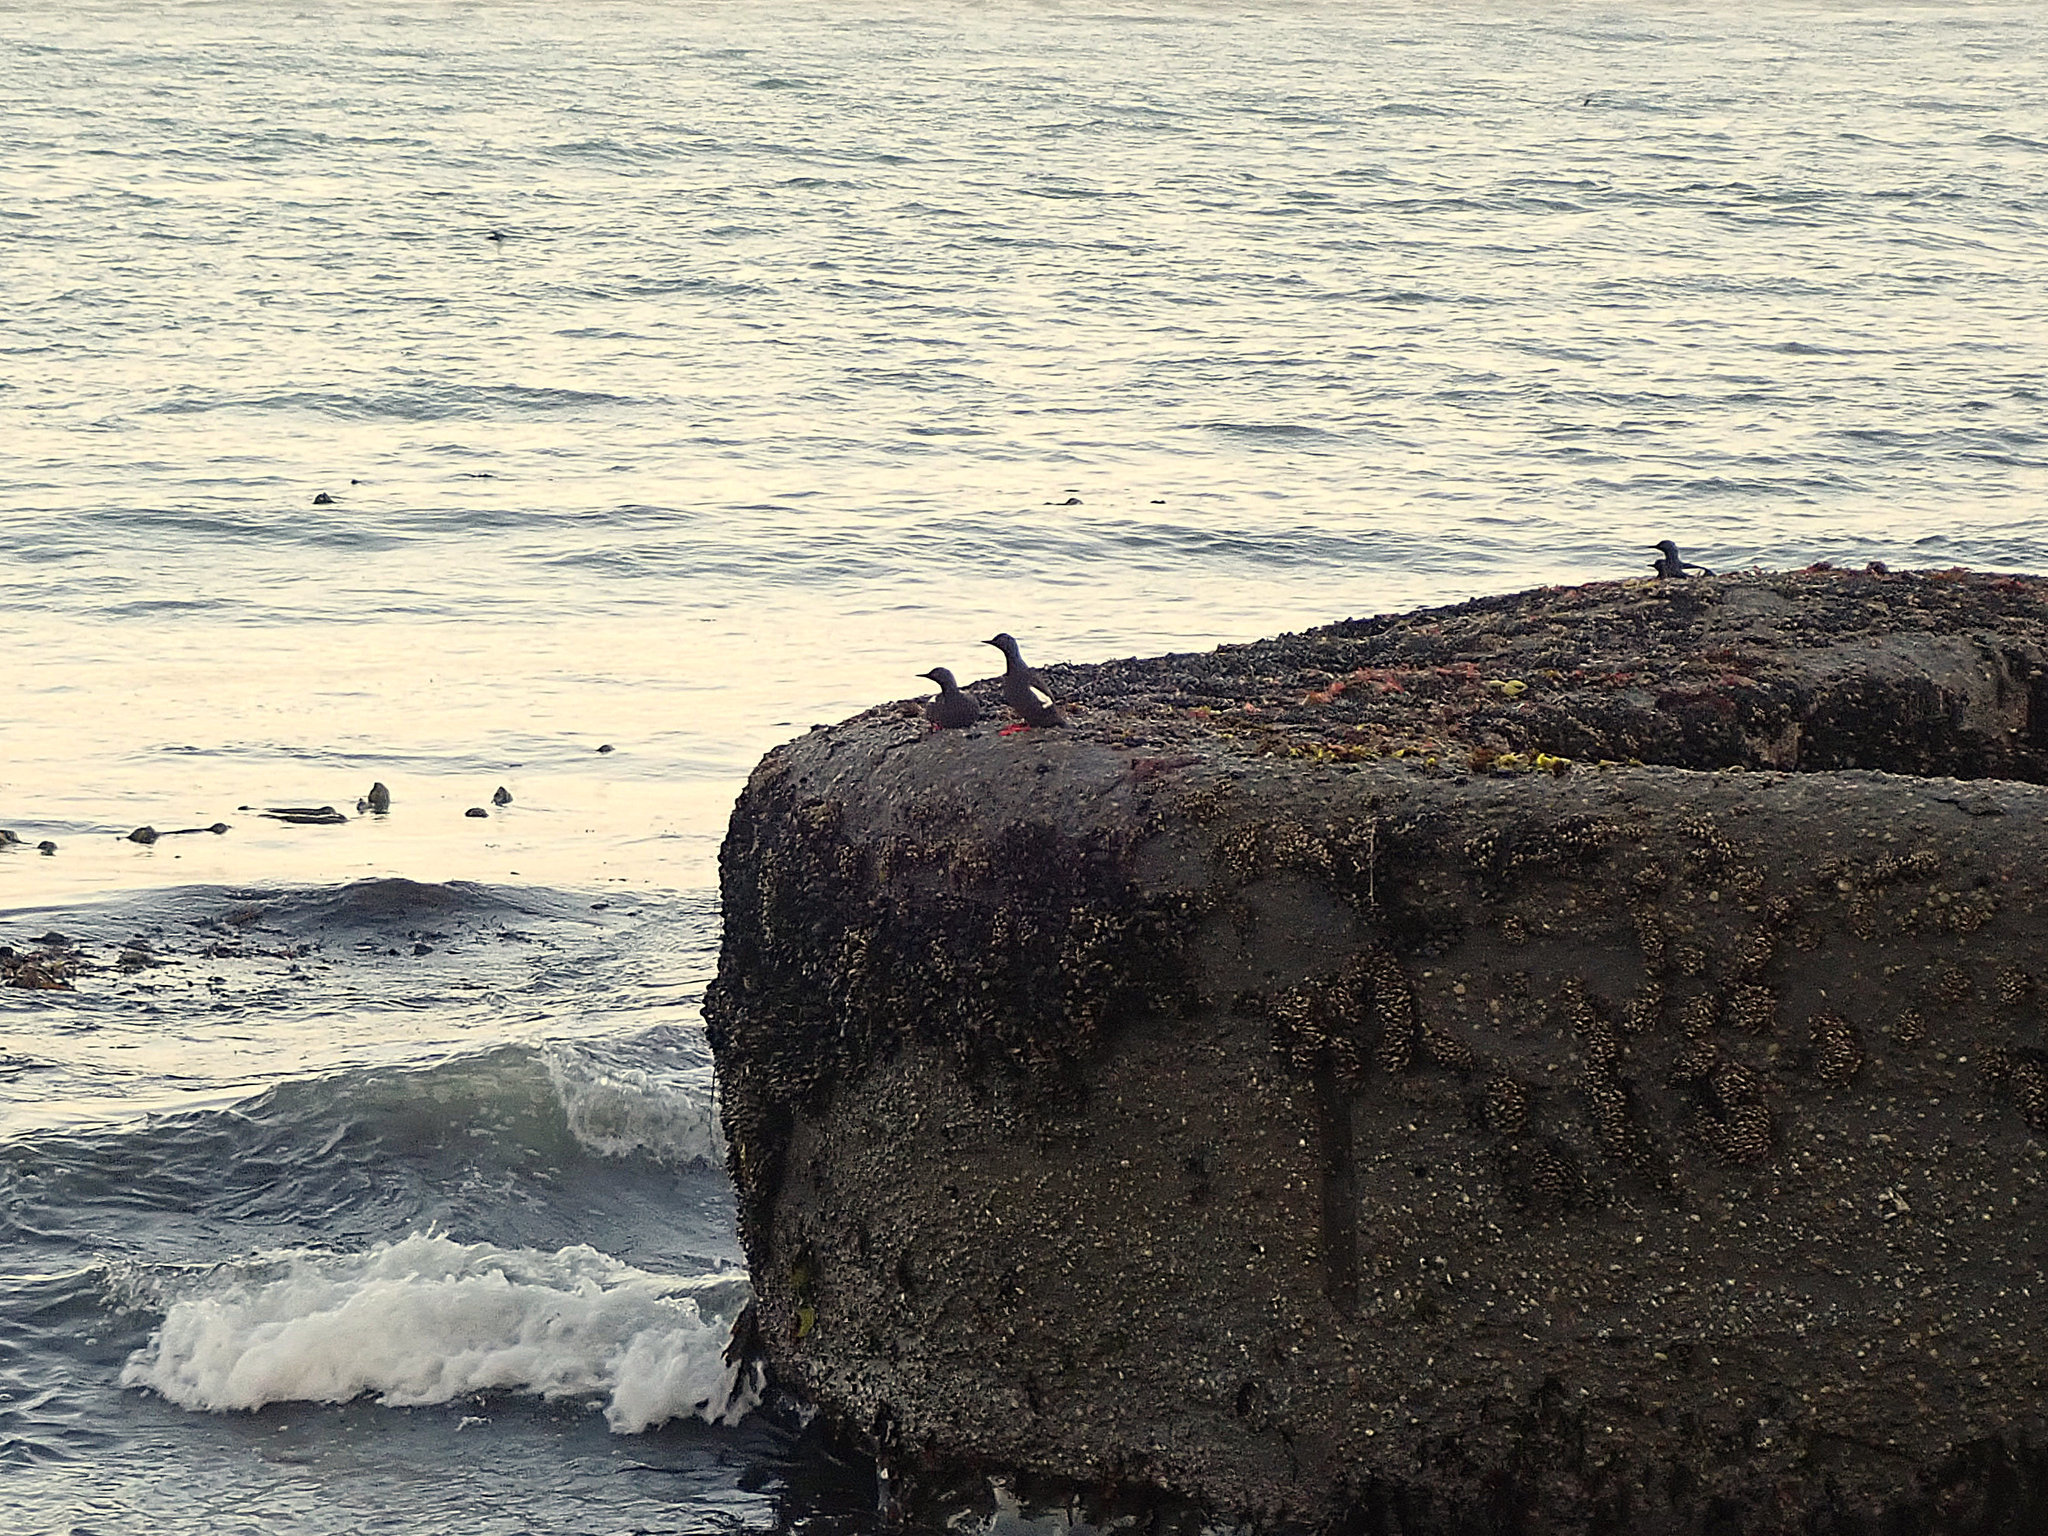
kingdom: Animalia
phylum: Chordata
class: Aves
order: Charadriiformes
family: Alcidae
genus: Cepphus
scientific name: Cepphus columba
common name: Pigeon guillemot
